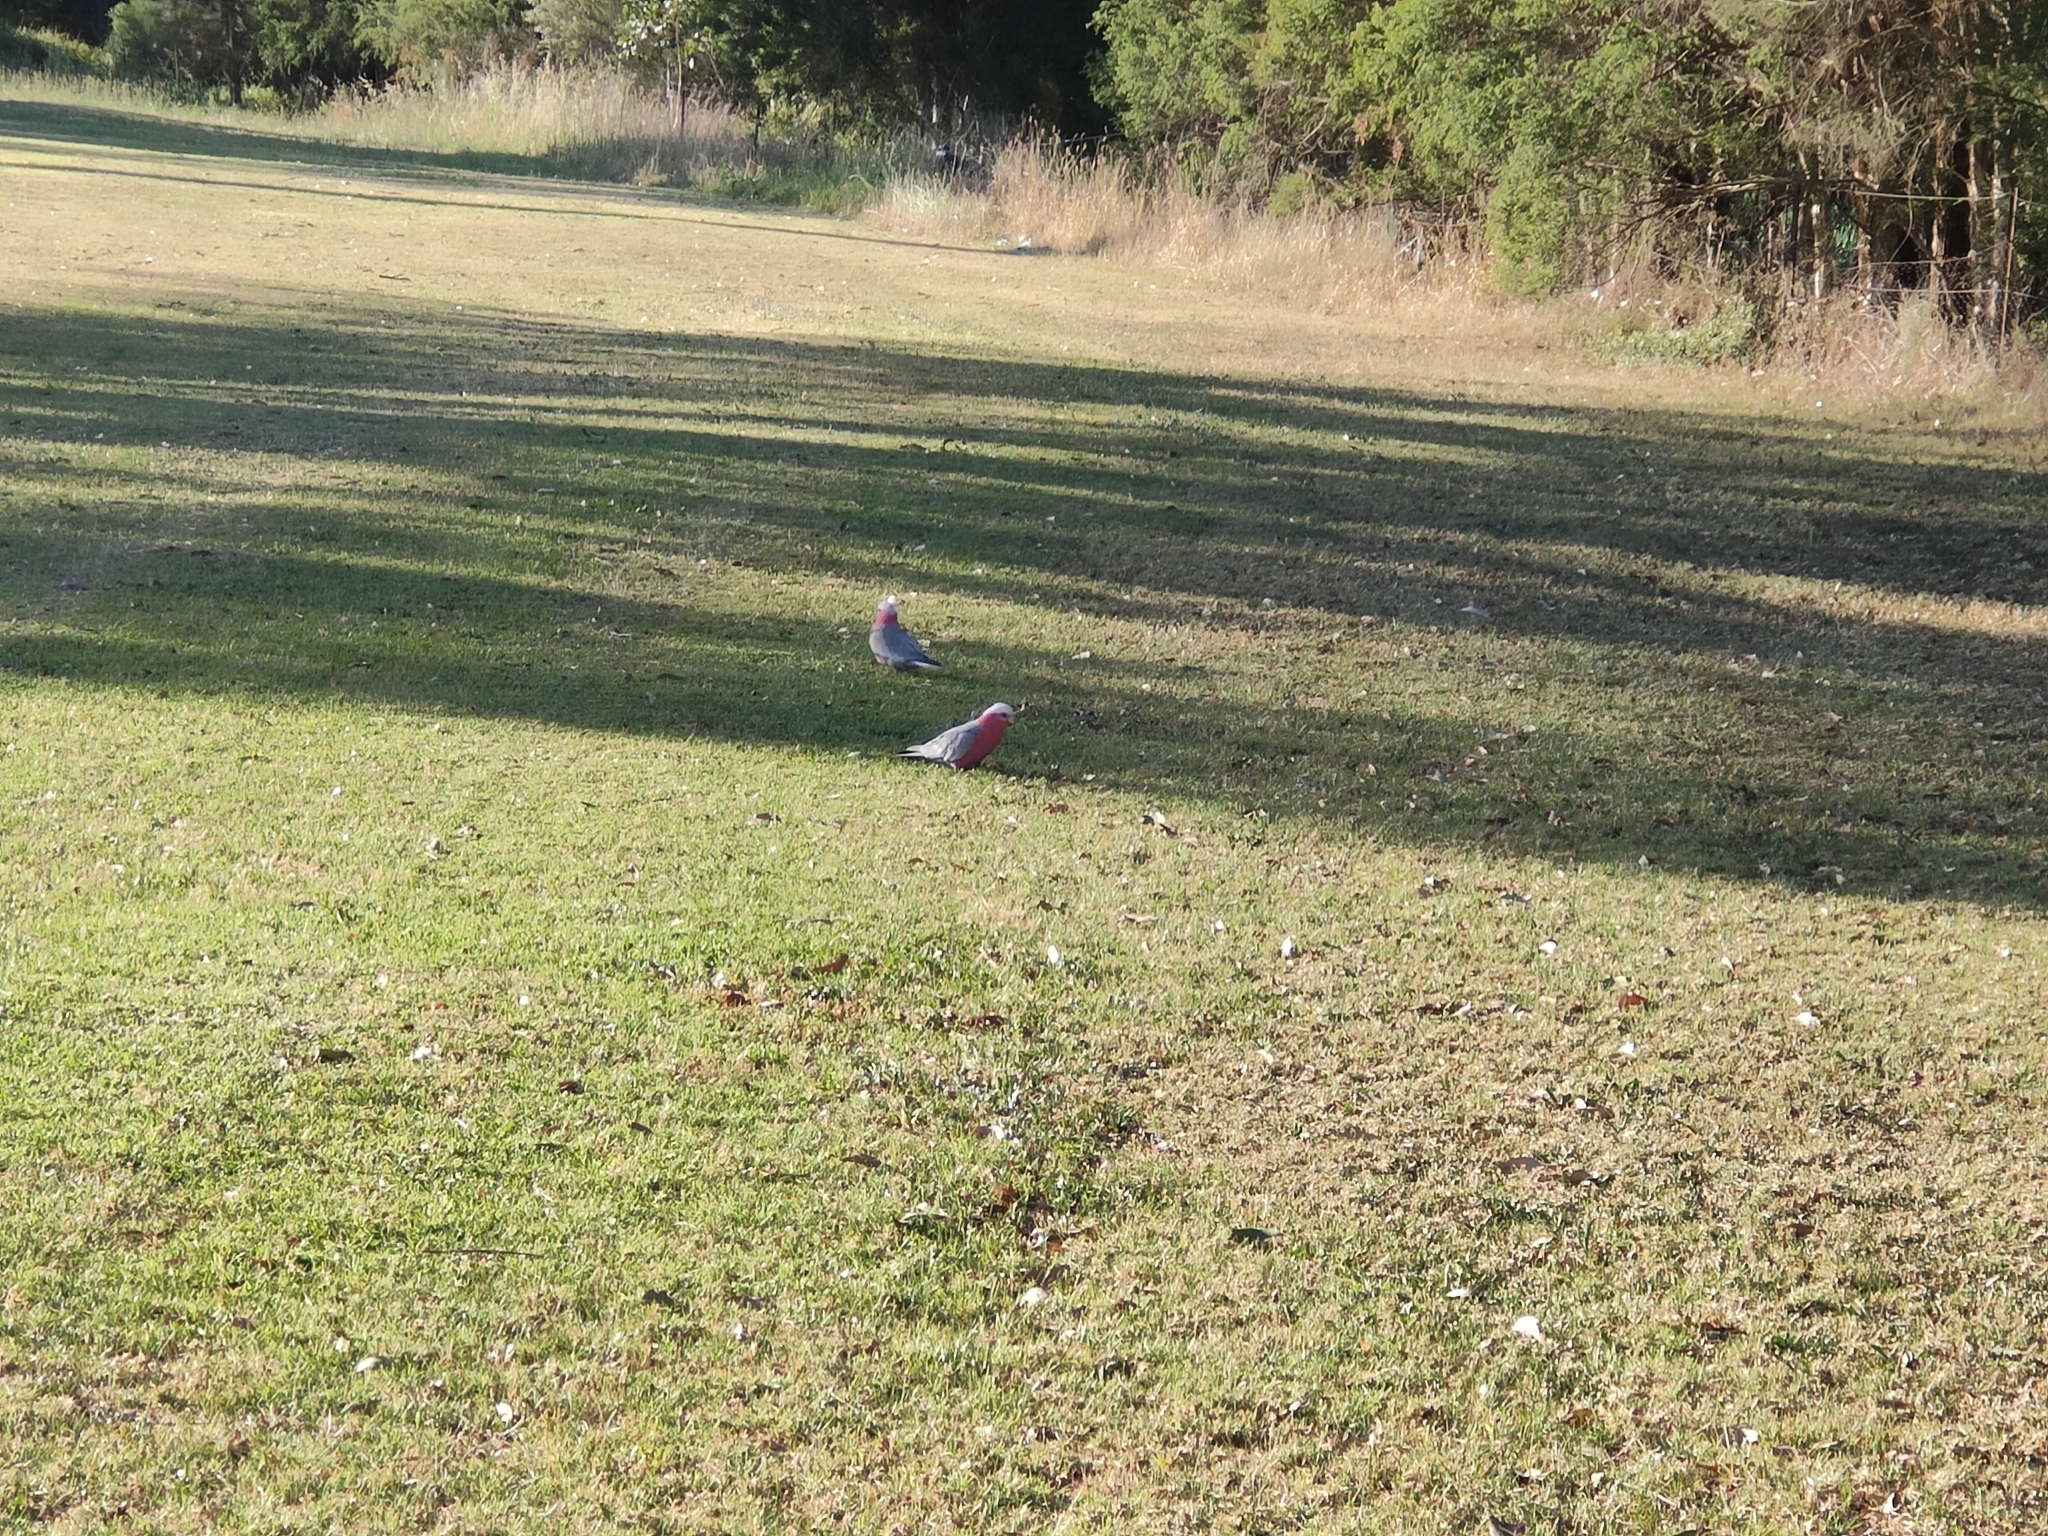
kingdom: Animalia
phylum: Chordata
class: Aves
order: Psittaciformes
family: Psittacidae
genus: Eolophus
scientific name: Eolophus roseicapilla
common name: Galah
